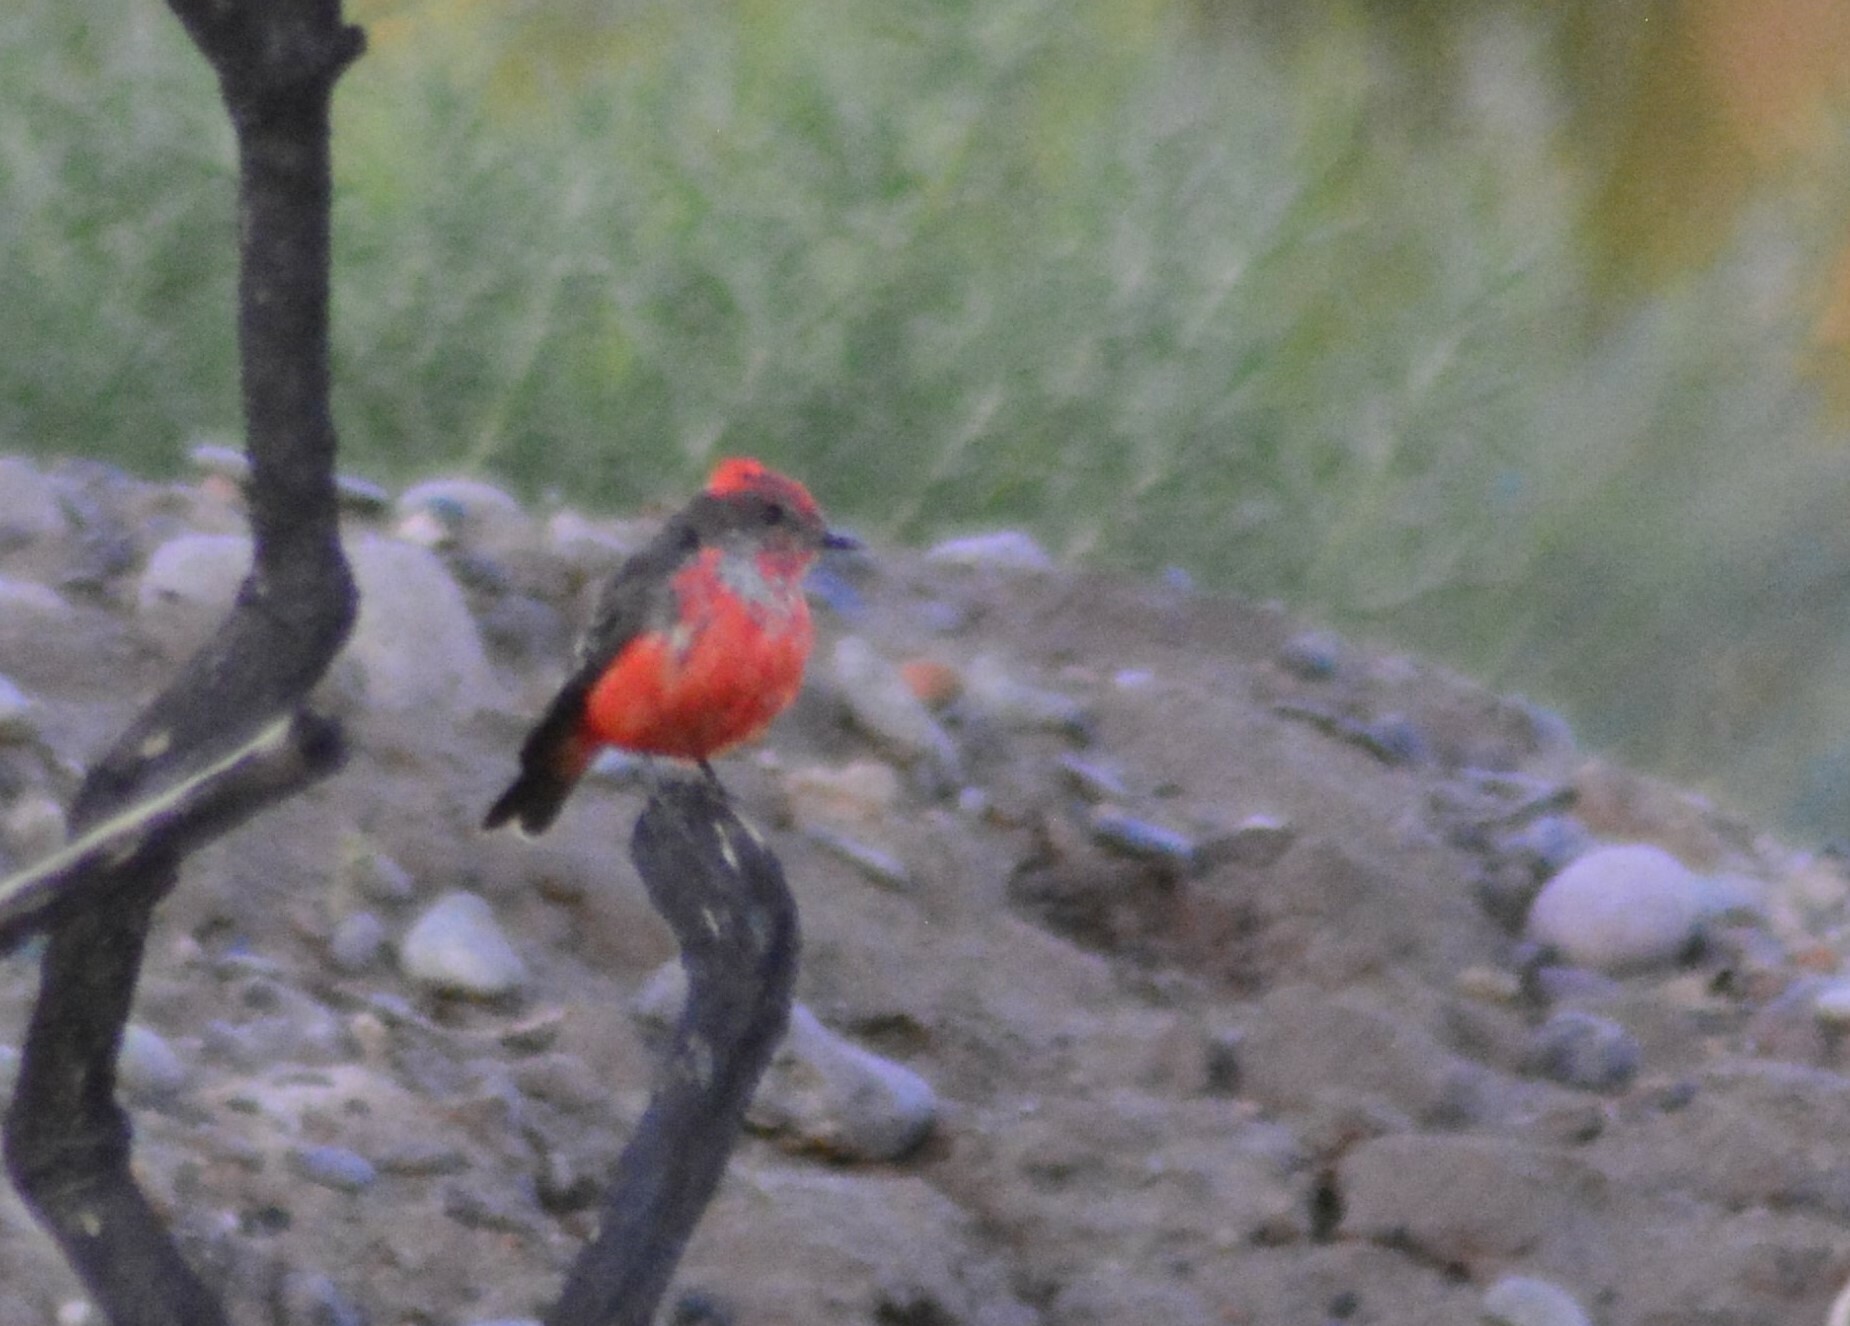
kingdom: Animalia
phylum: Chordata
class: Aves
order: Passeriformes
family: Tyrannidae
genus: Pyrocephalus
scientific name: Pyrocephalus rubinus
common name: Vermilion flycatcher
